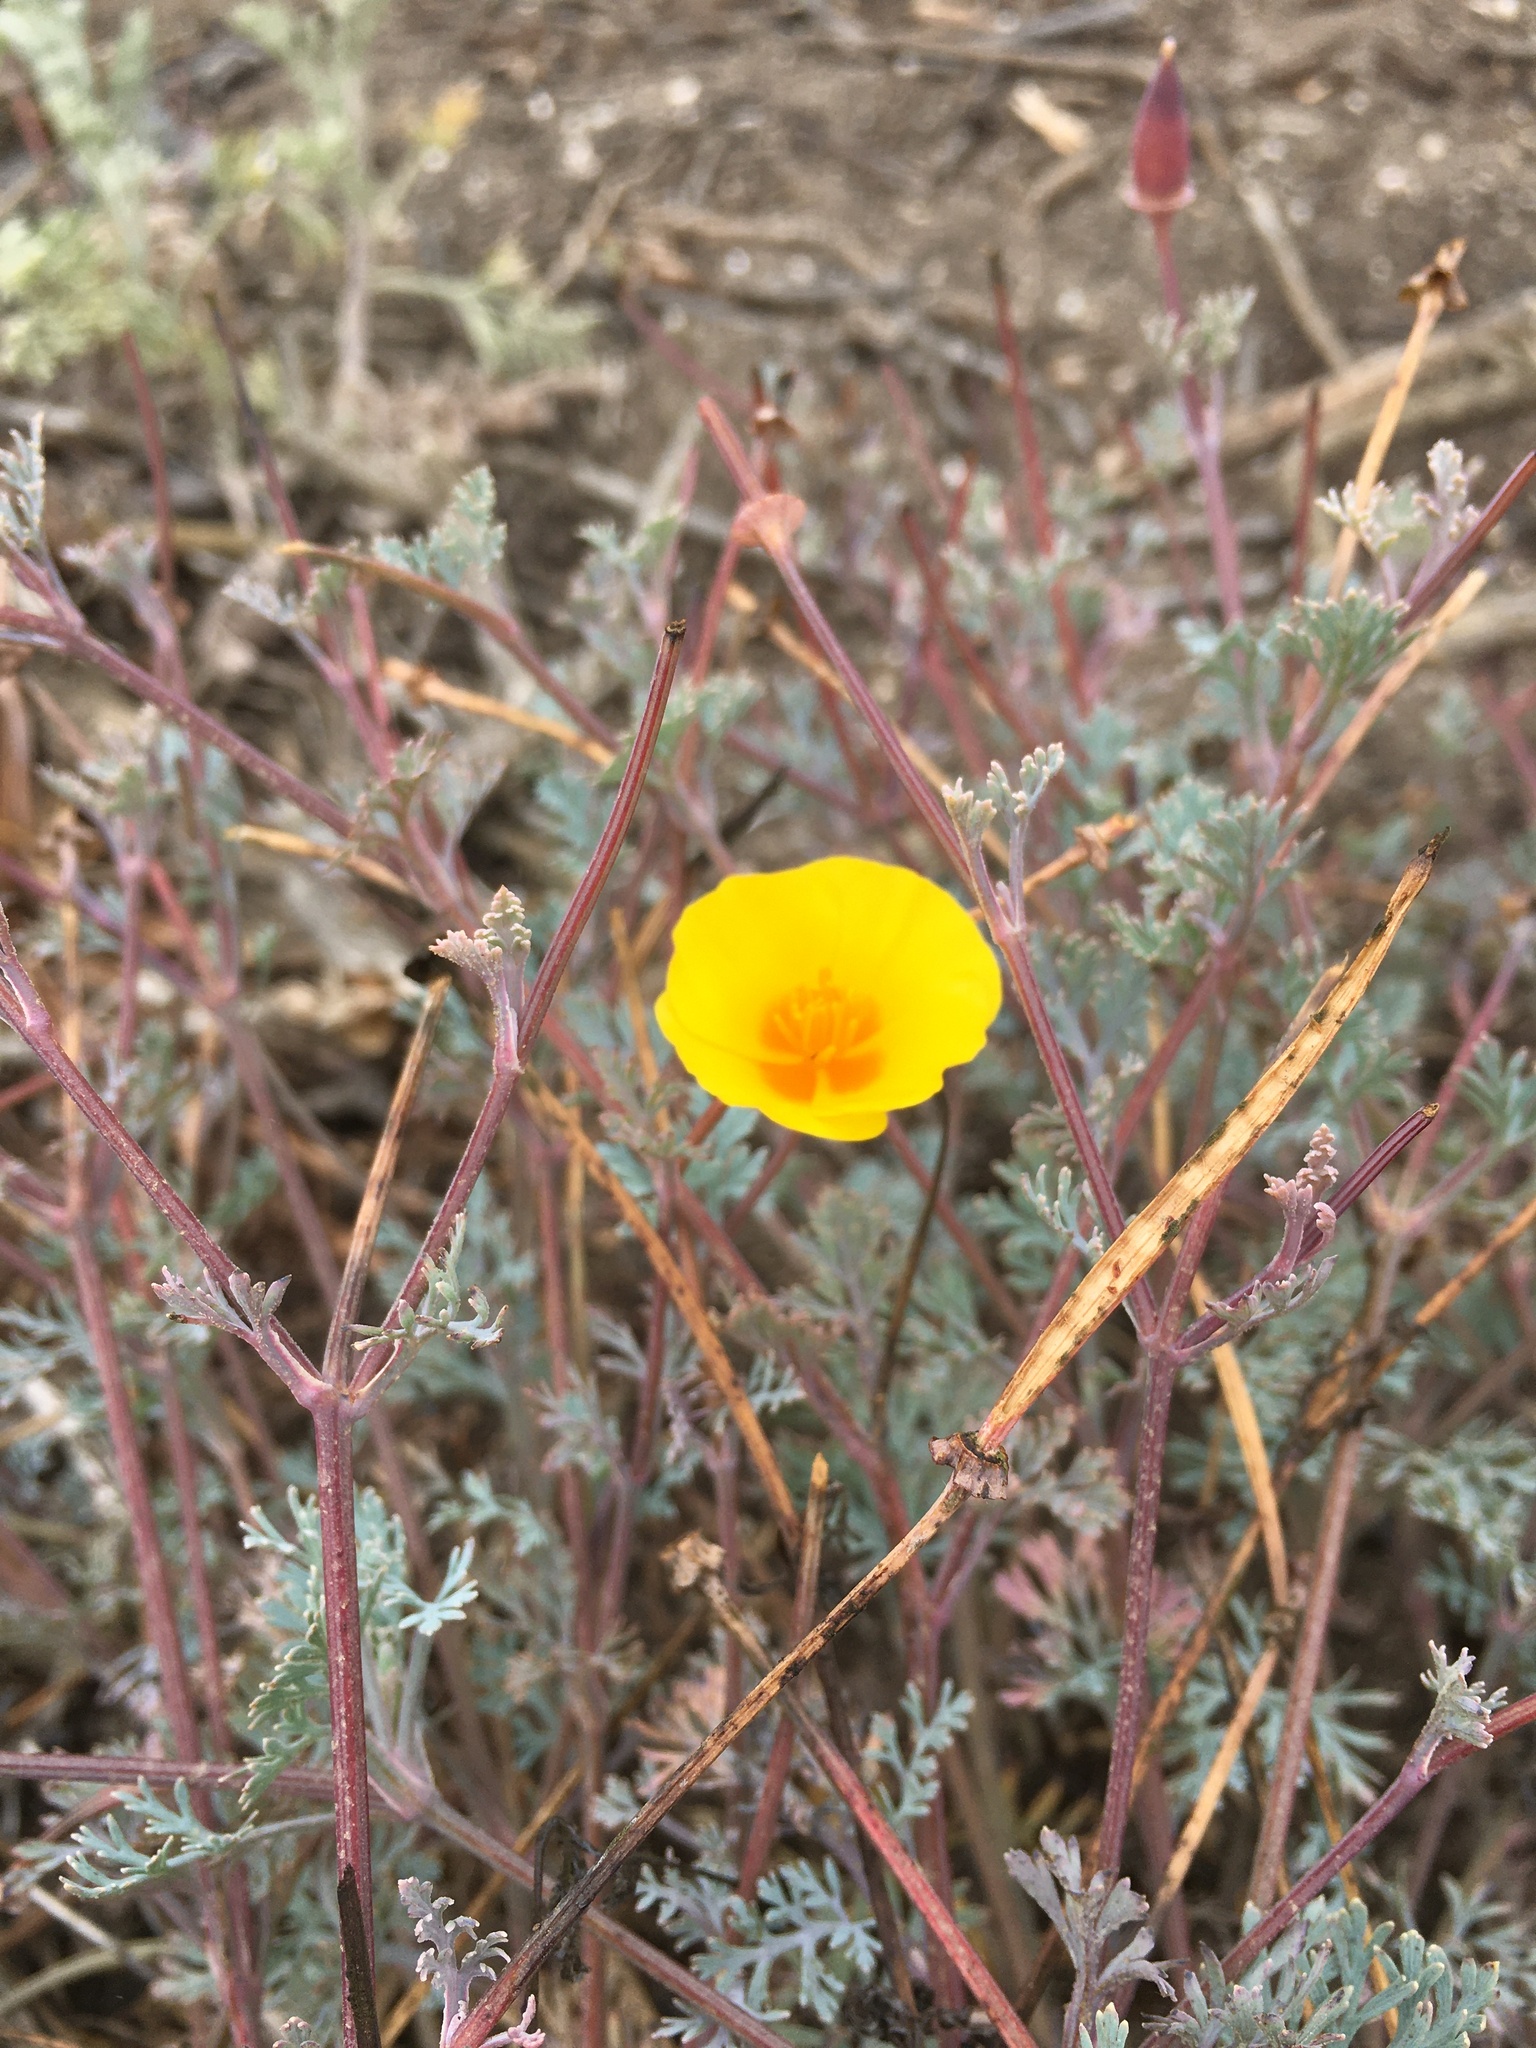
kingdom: Plantae
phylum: Tracheophyta
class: Magnoliopsida
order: Ranunculales
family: Papaveraceae
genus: Eschscholzia
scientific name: Eschscholzia californica
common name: California poppy
